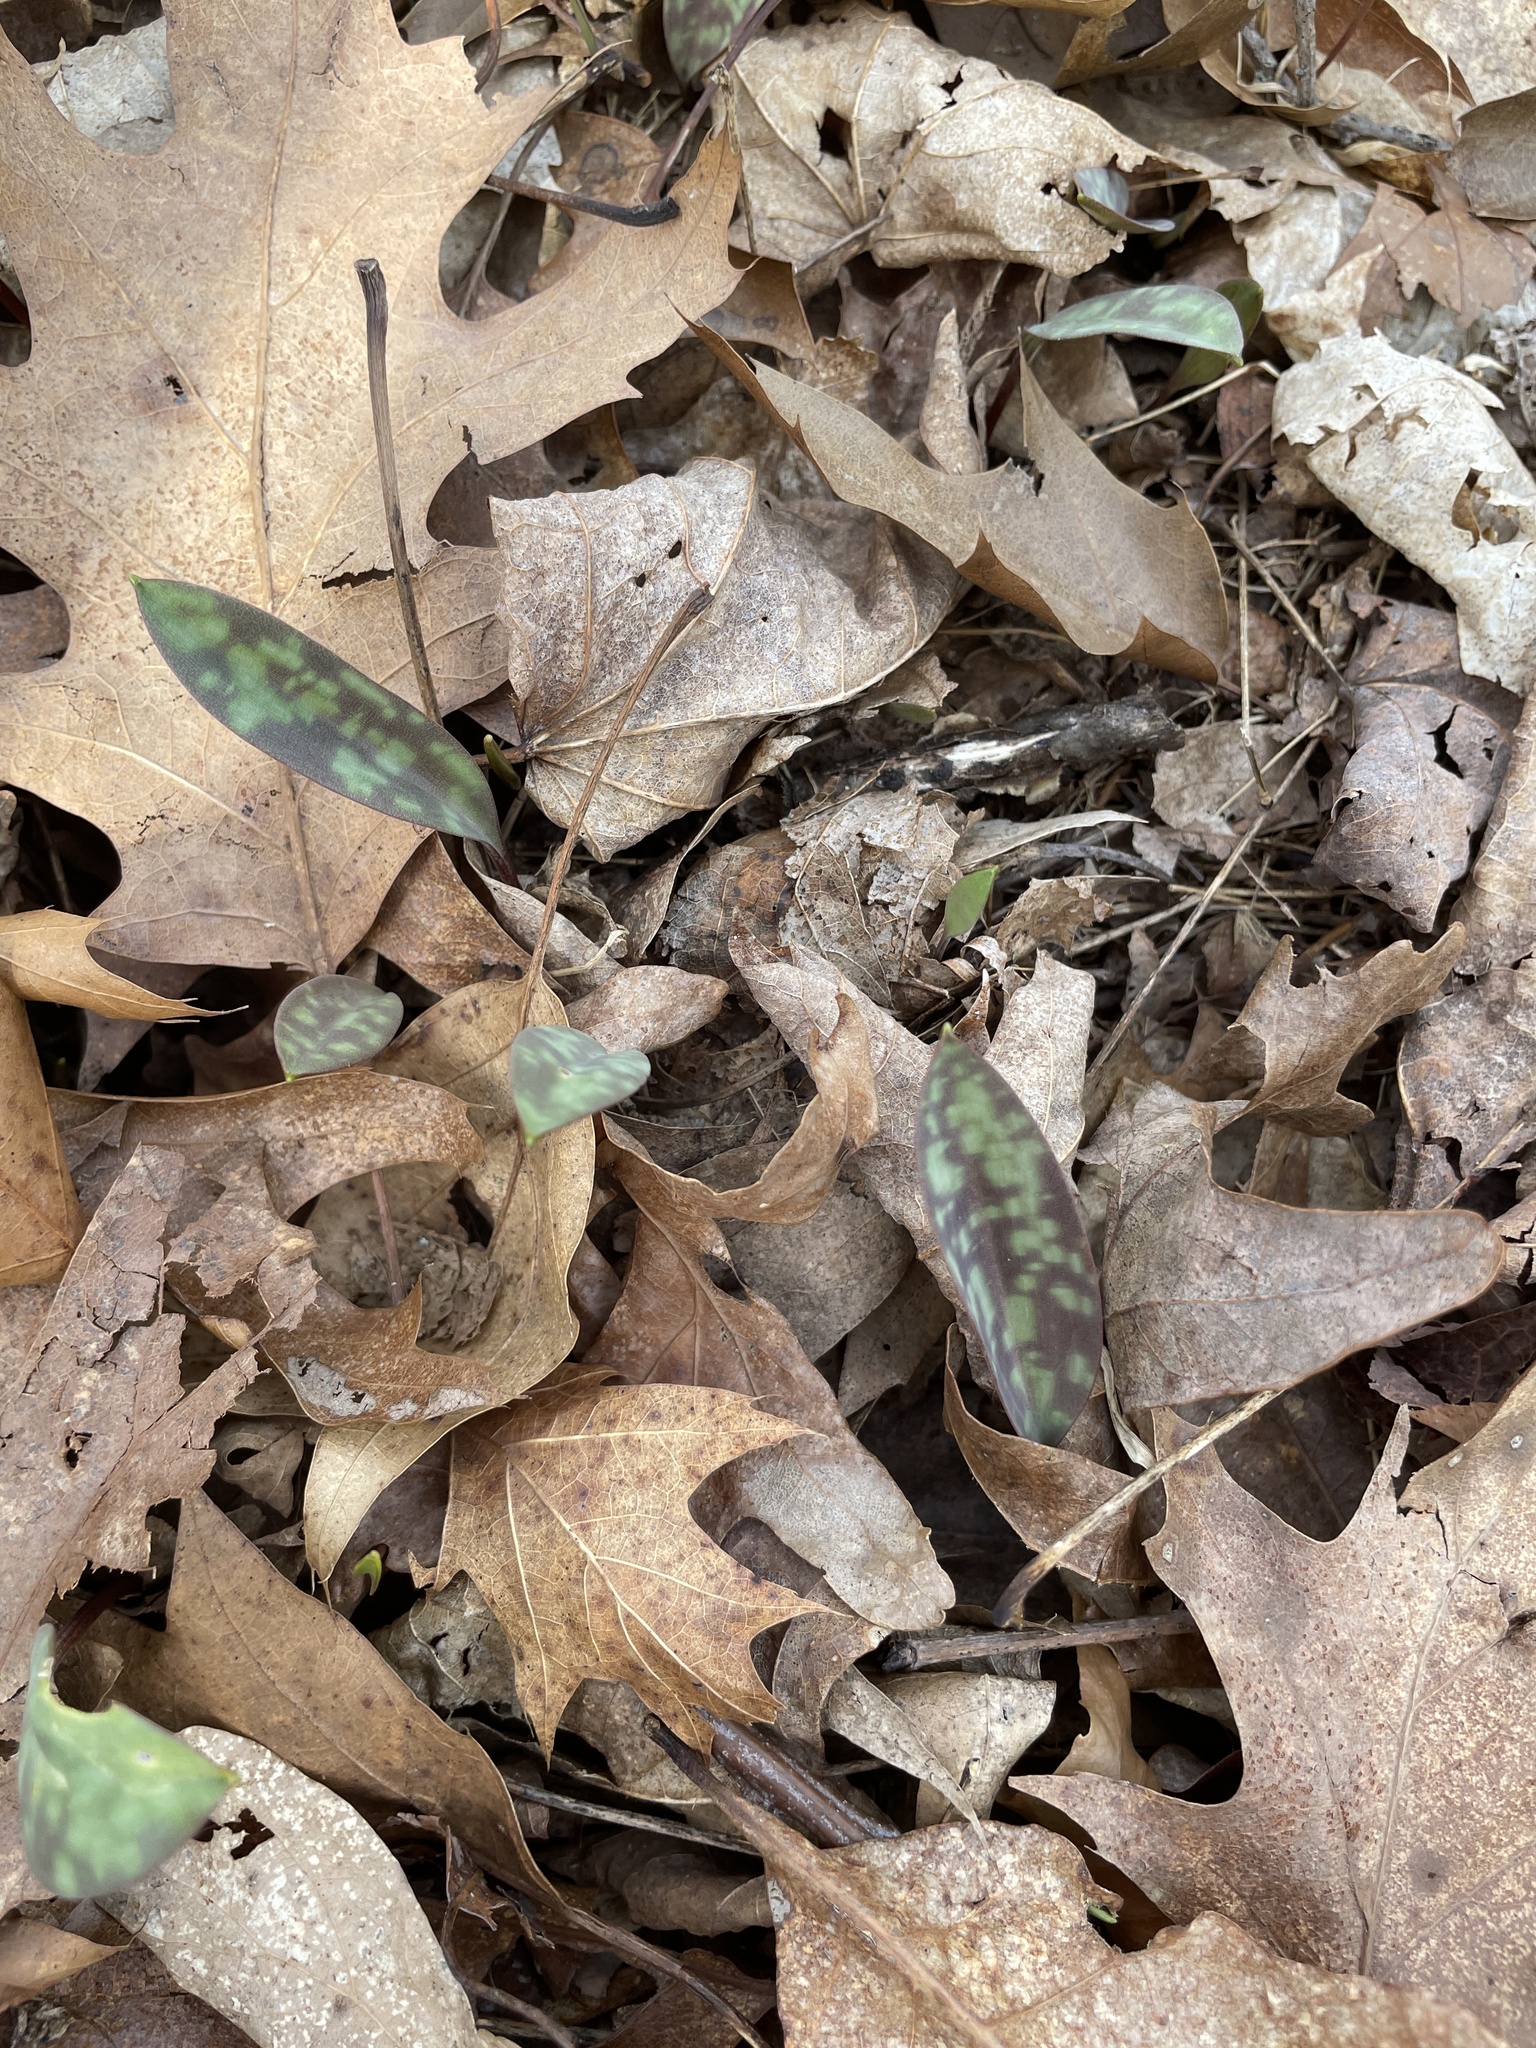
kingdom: Plantae
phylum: Tracheophyta
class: Liliopsida
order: Liliales
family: Liliaceae
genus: Erythronium
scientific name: Erythronium americanum
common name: Yellow adder's-tongue
